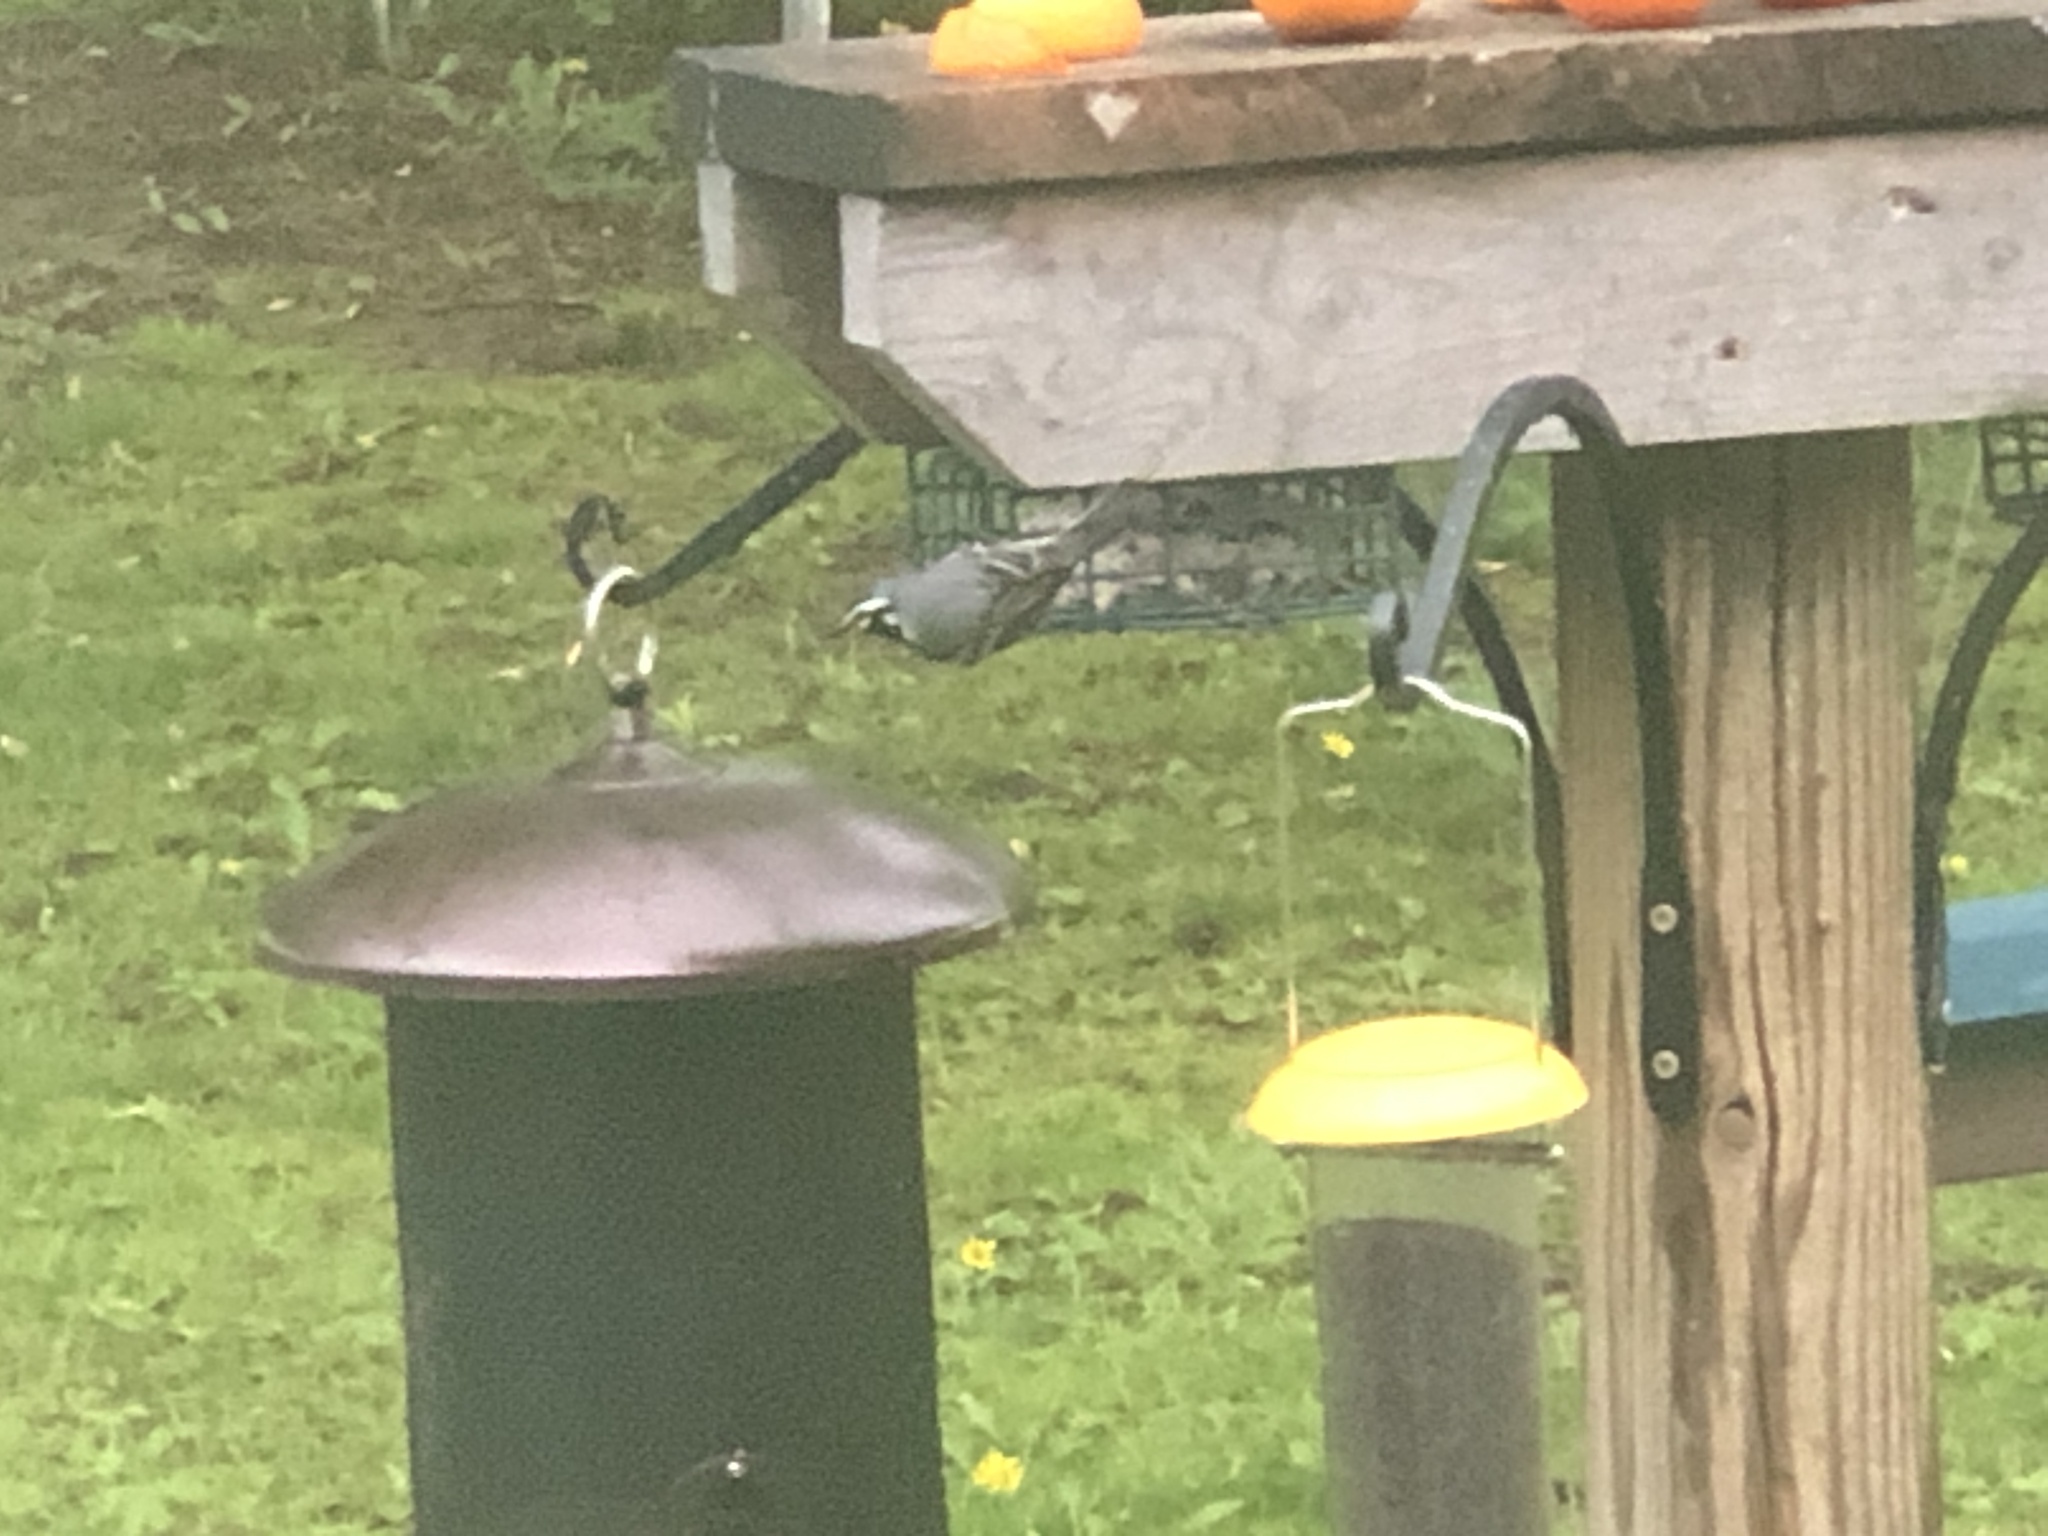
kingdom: Animalia
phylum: Chordata
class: Aves
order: Passeriformes
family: Parulidae
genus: Setophaga
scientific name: Setophaga dominica
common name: Yellow-throated warbler
